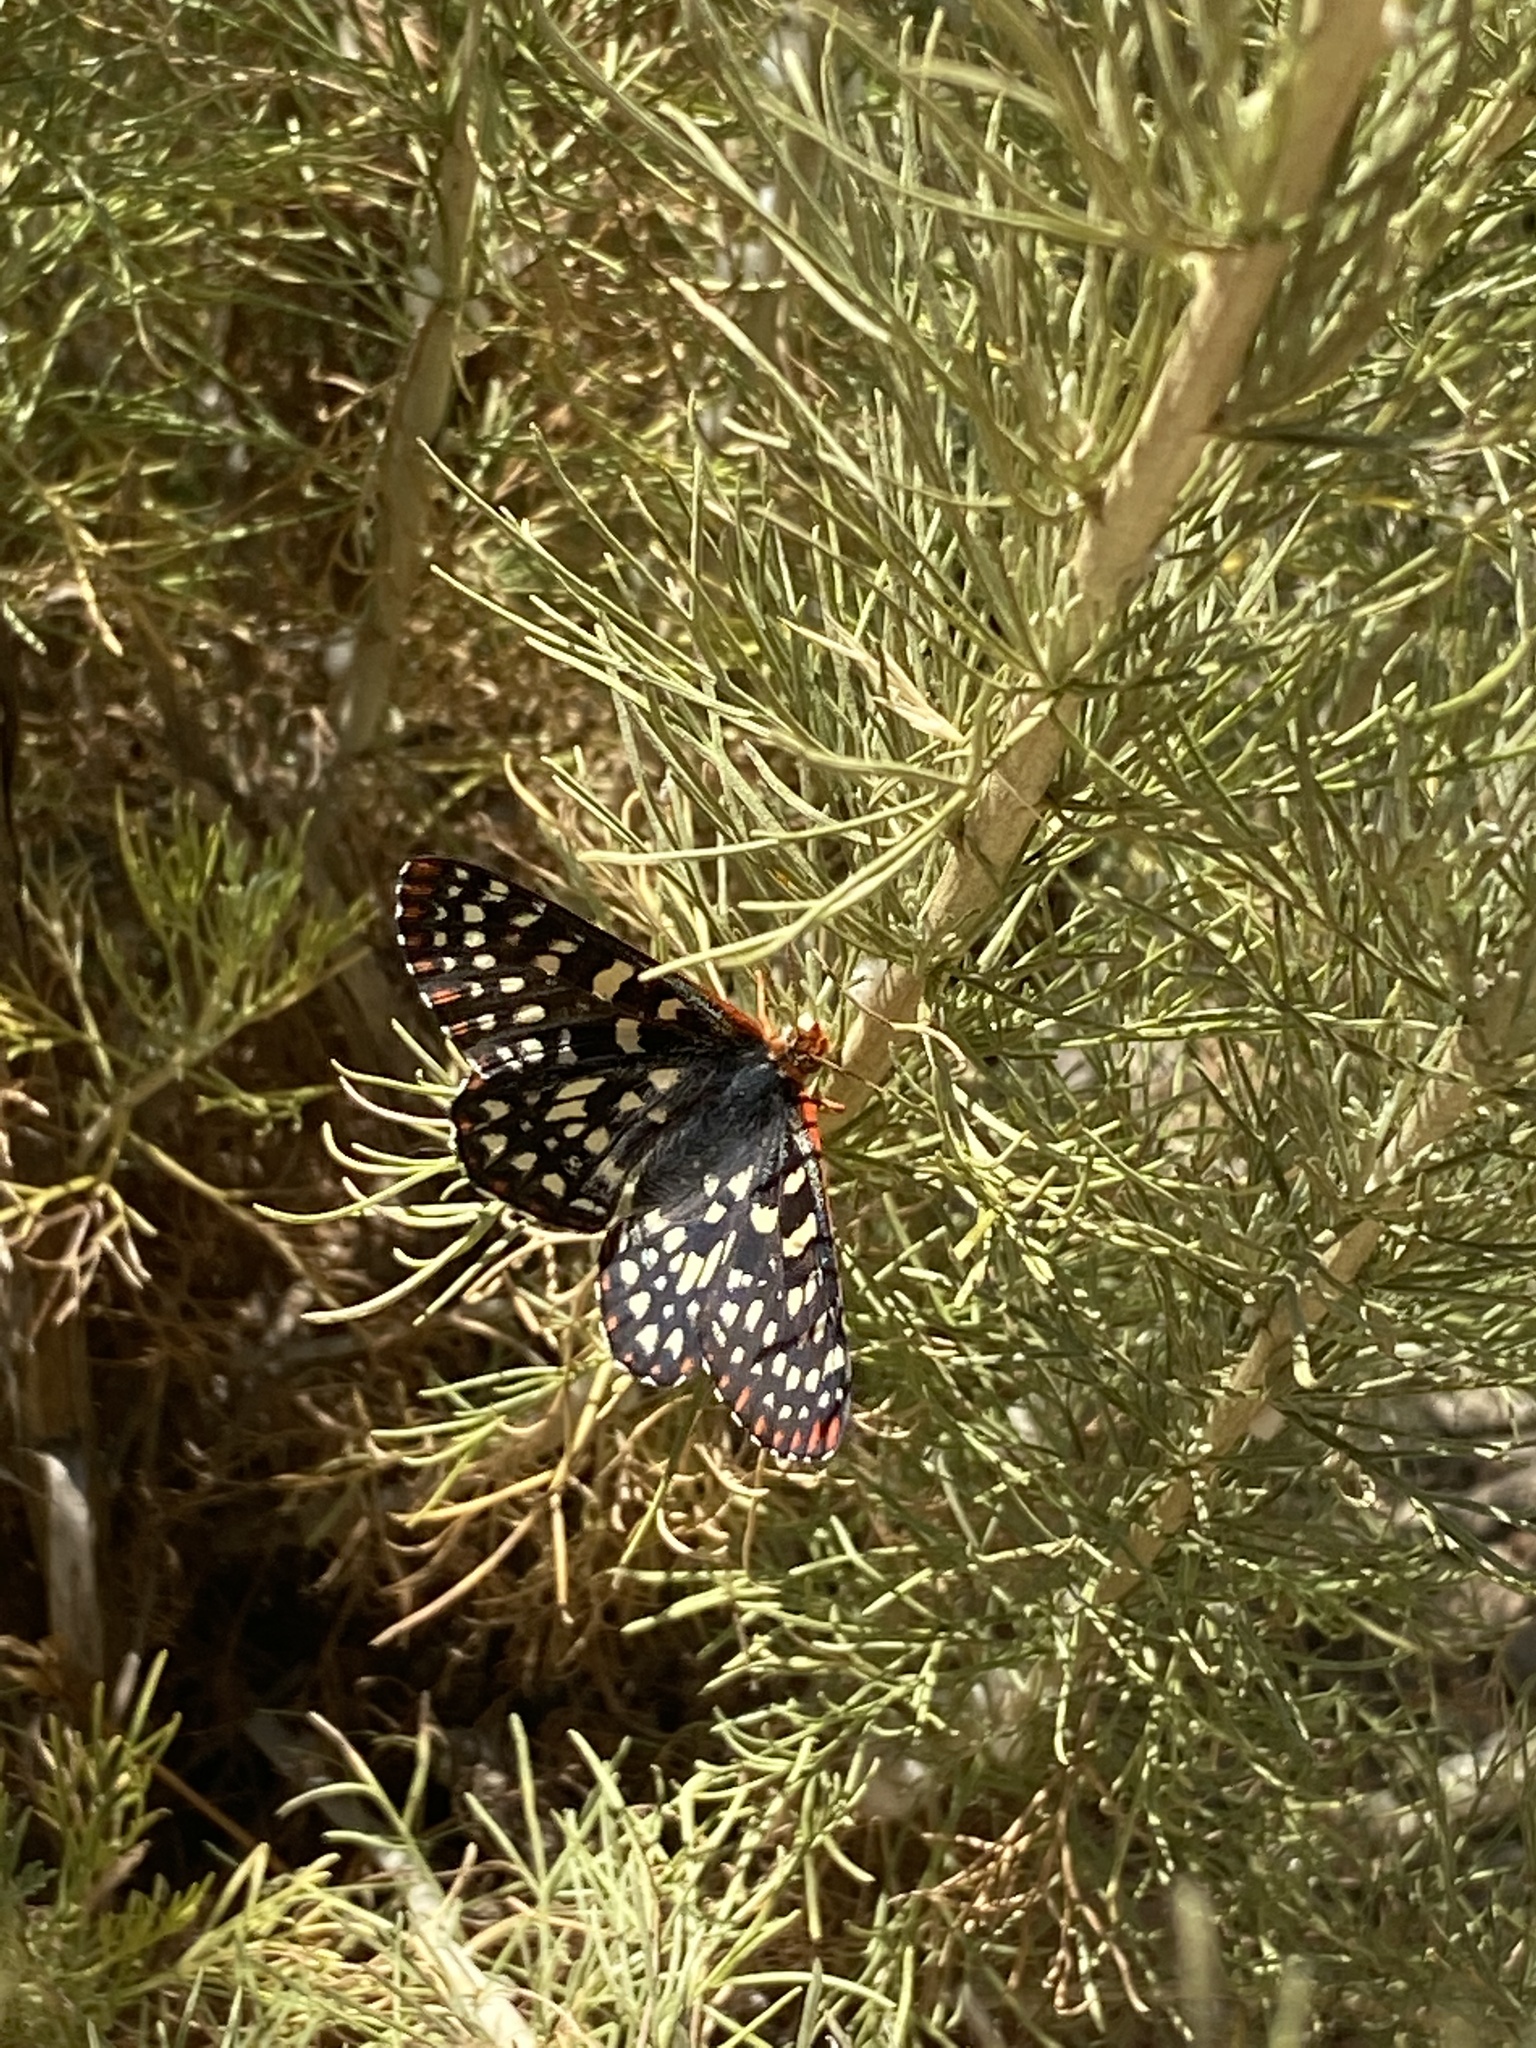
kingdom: Animalia
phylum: Arthropoda
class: Insecta
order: Lepidoptera
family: Nymphalidae
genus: Occidryas
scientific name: Occidryas chalcedona
